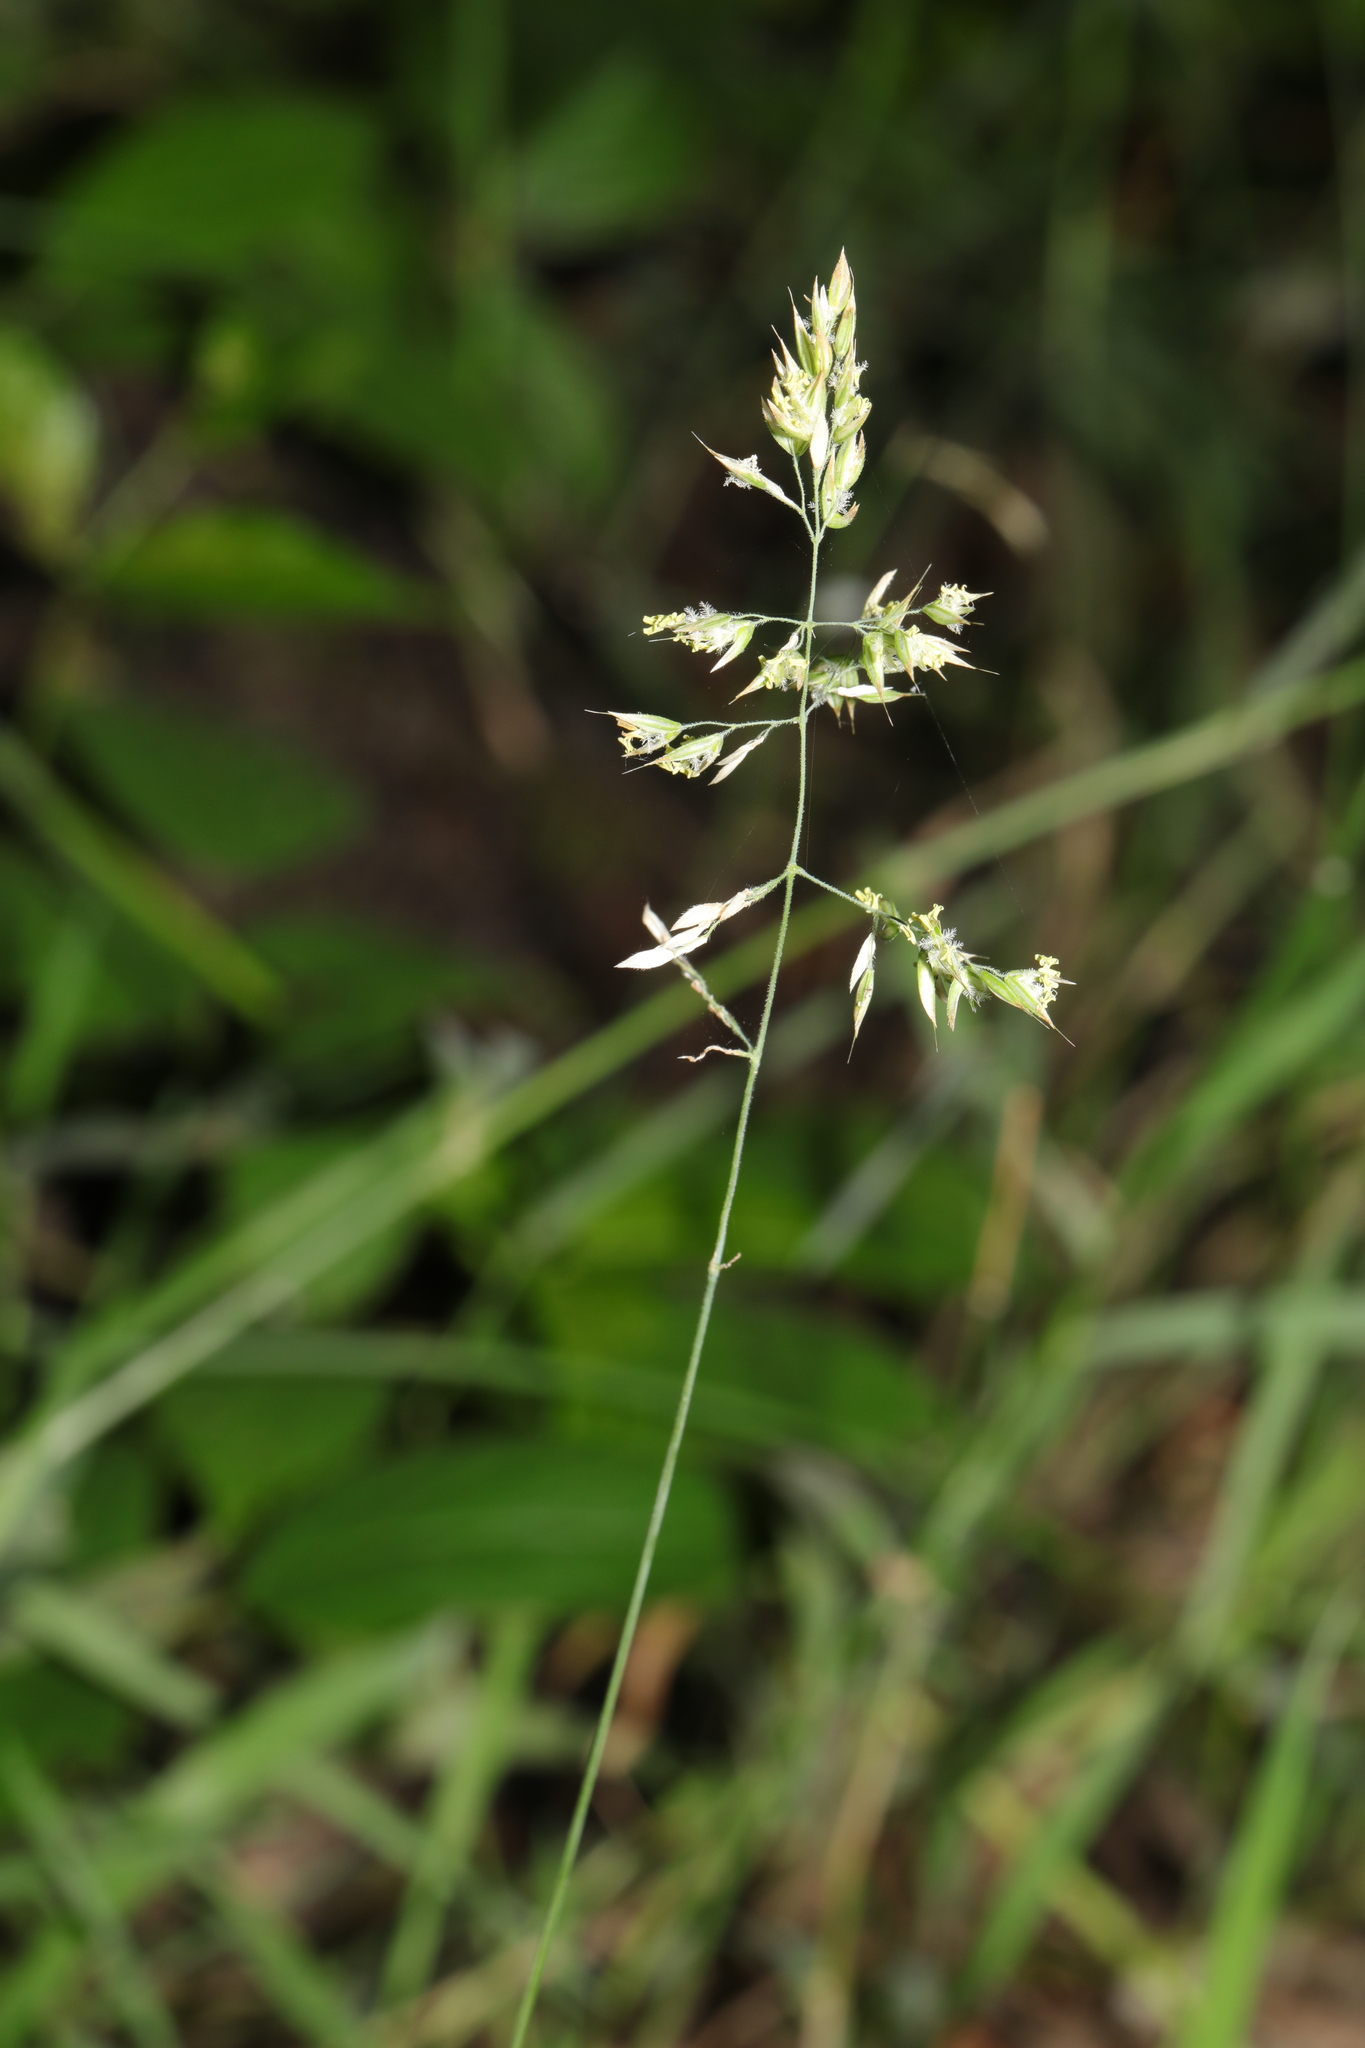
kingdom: Plantae
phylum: Tracheophyta
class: Liliopsida
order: Poales
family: Poaceae
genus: Holcus
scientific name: Holcus lanatus
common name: Yorkshire-fog
